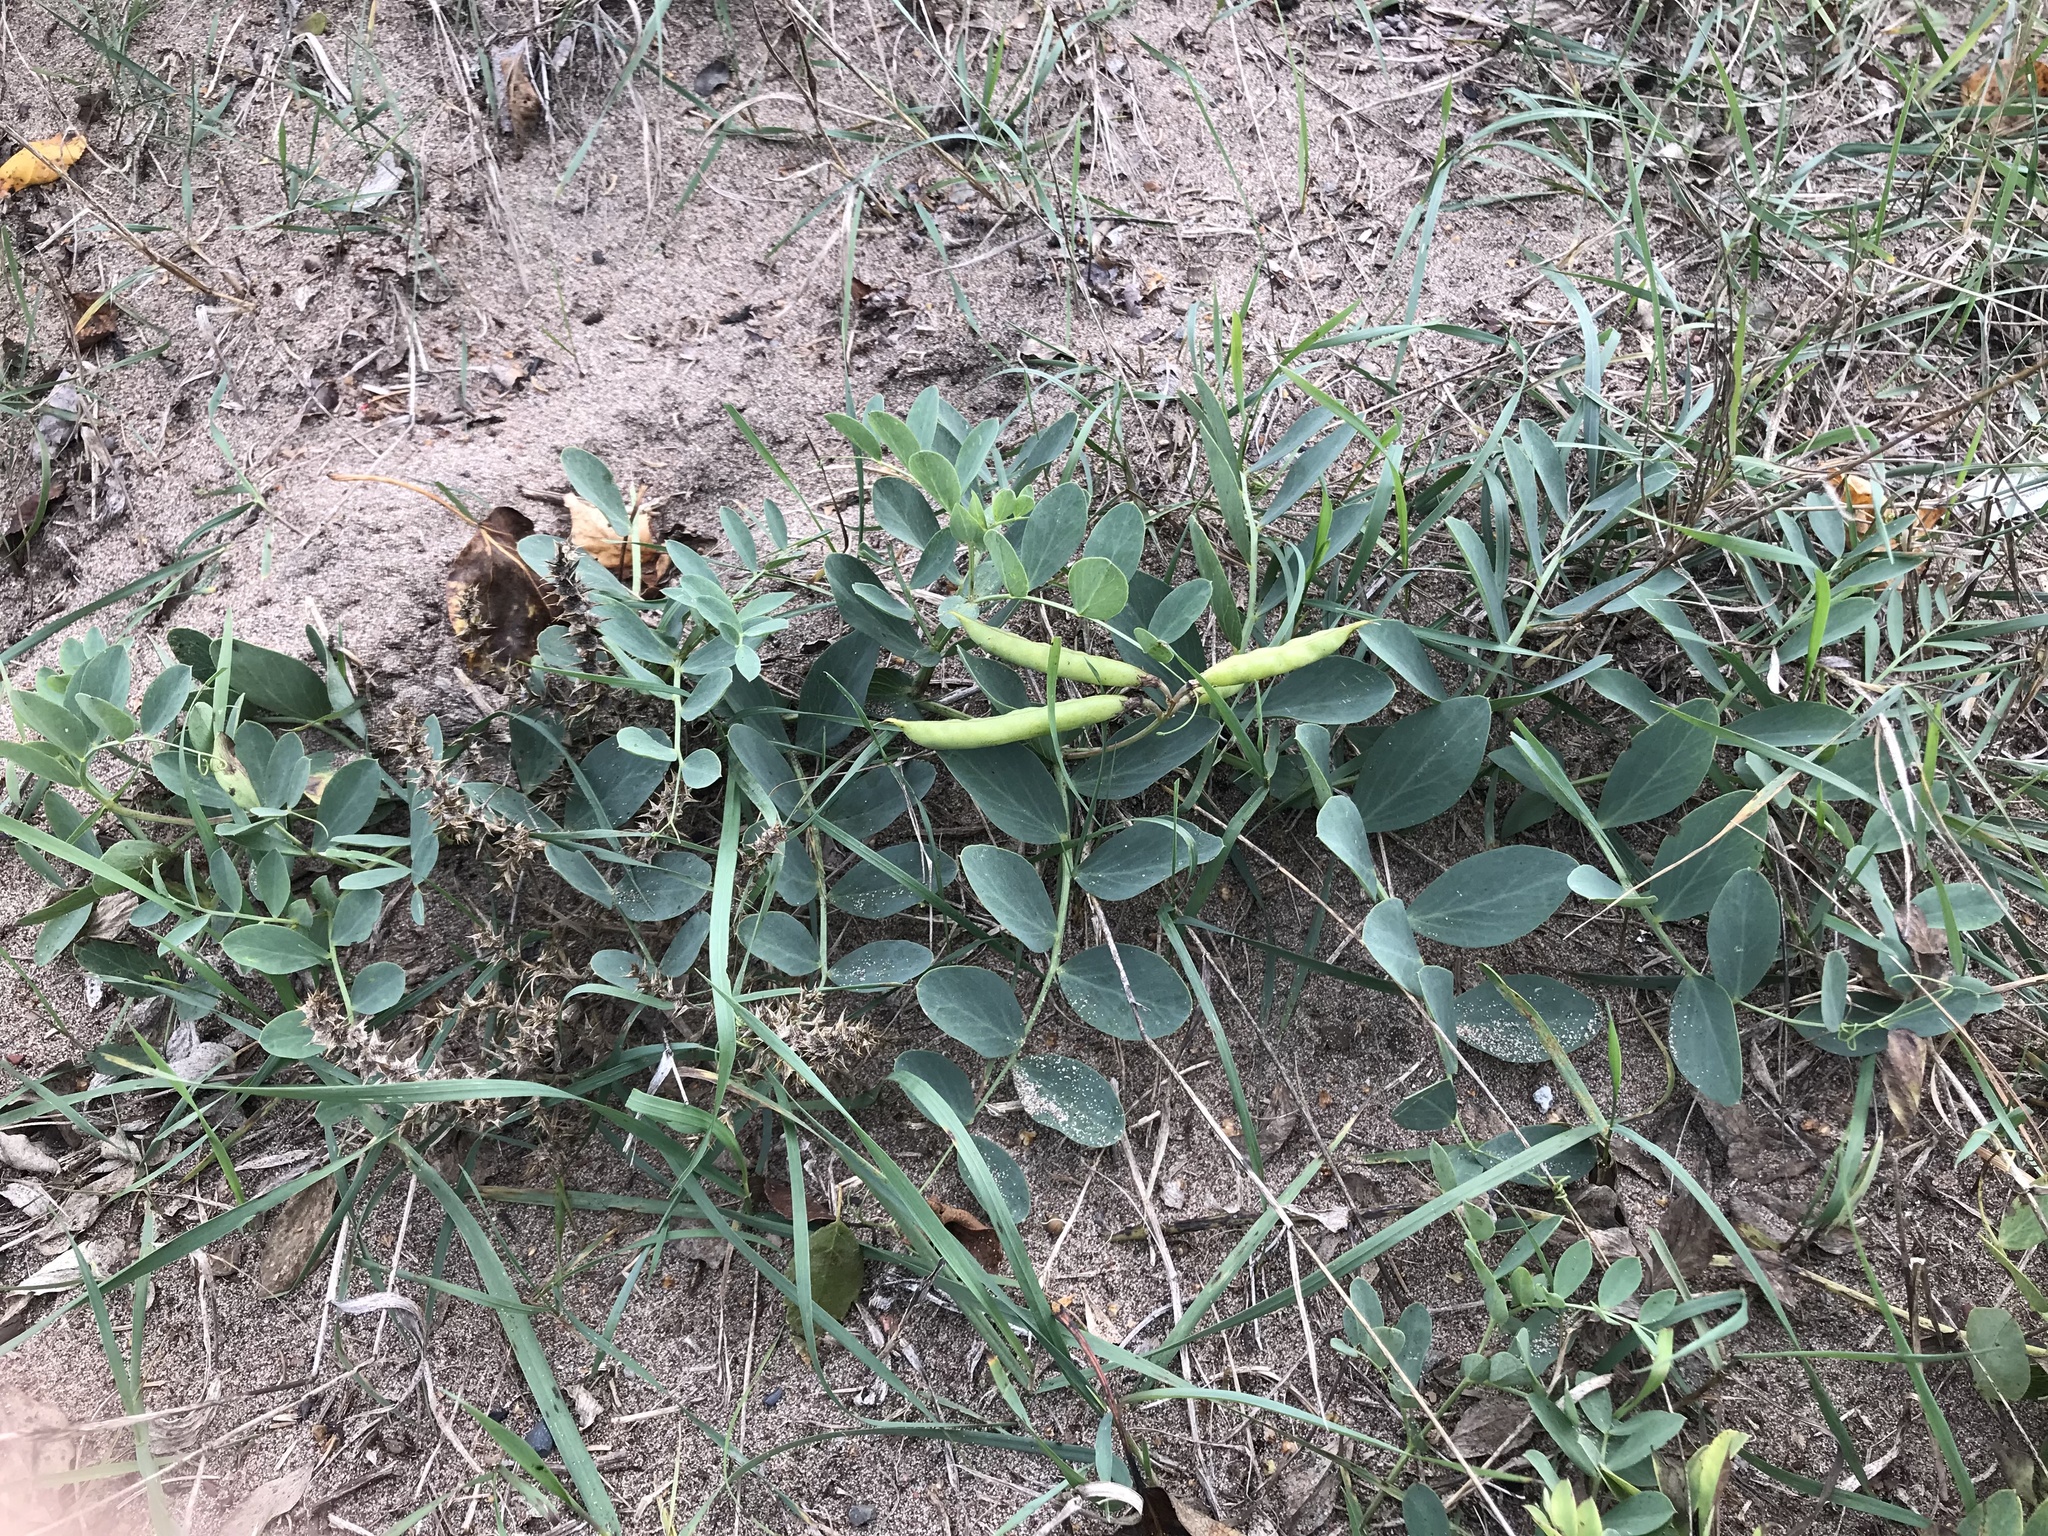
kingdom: Plantae
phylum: Tracheophyta
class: Magnoliopsida
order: Fabales
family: Fabaceae
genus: Lathyrus
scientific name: Lathyrus japonicus
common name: Sea pea
